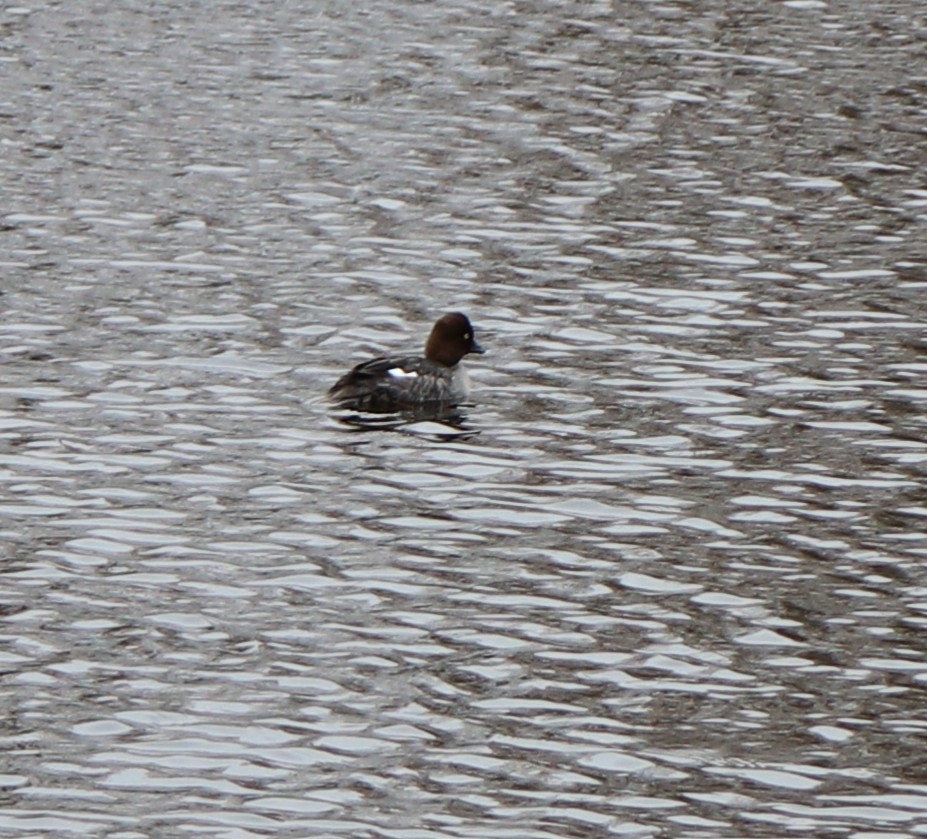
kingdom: Animalia
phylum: Chordata
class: Aves
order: Anseriformes
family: Anatidae
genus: Bucephala
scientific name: Bucephala clangula
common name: Common goldeneye
